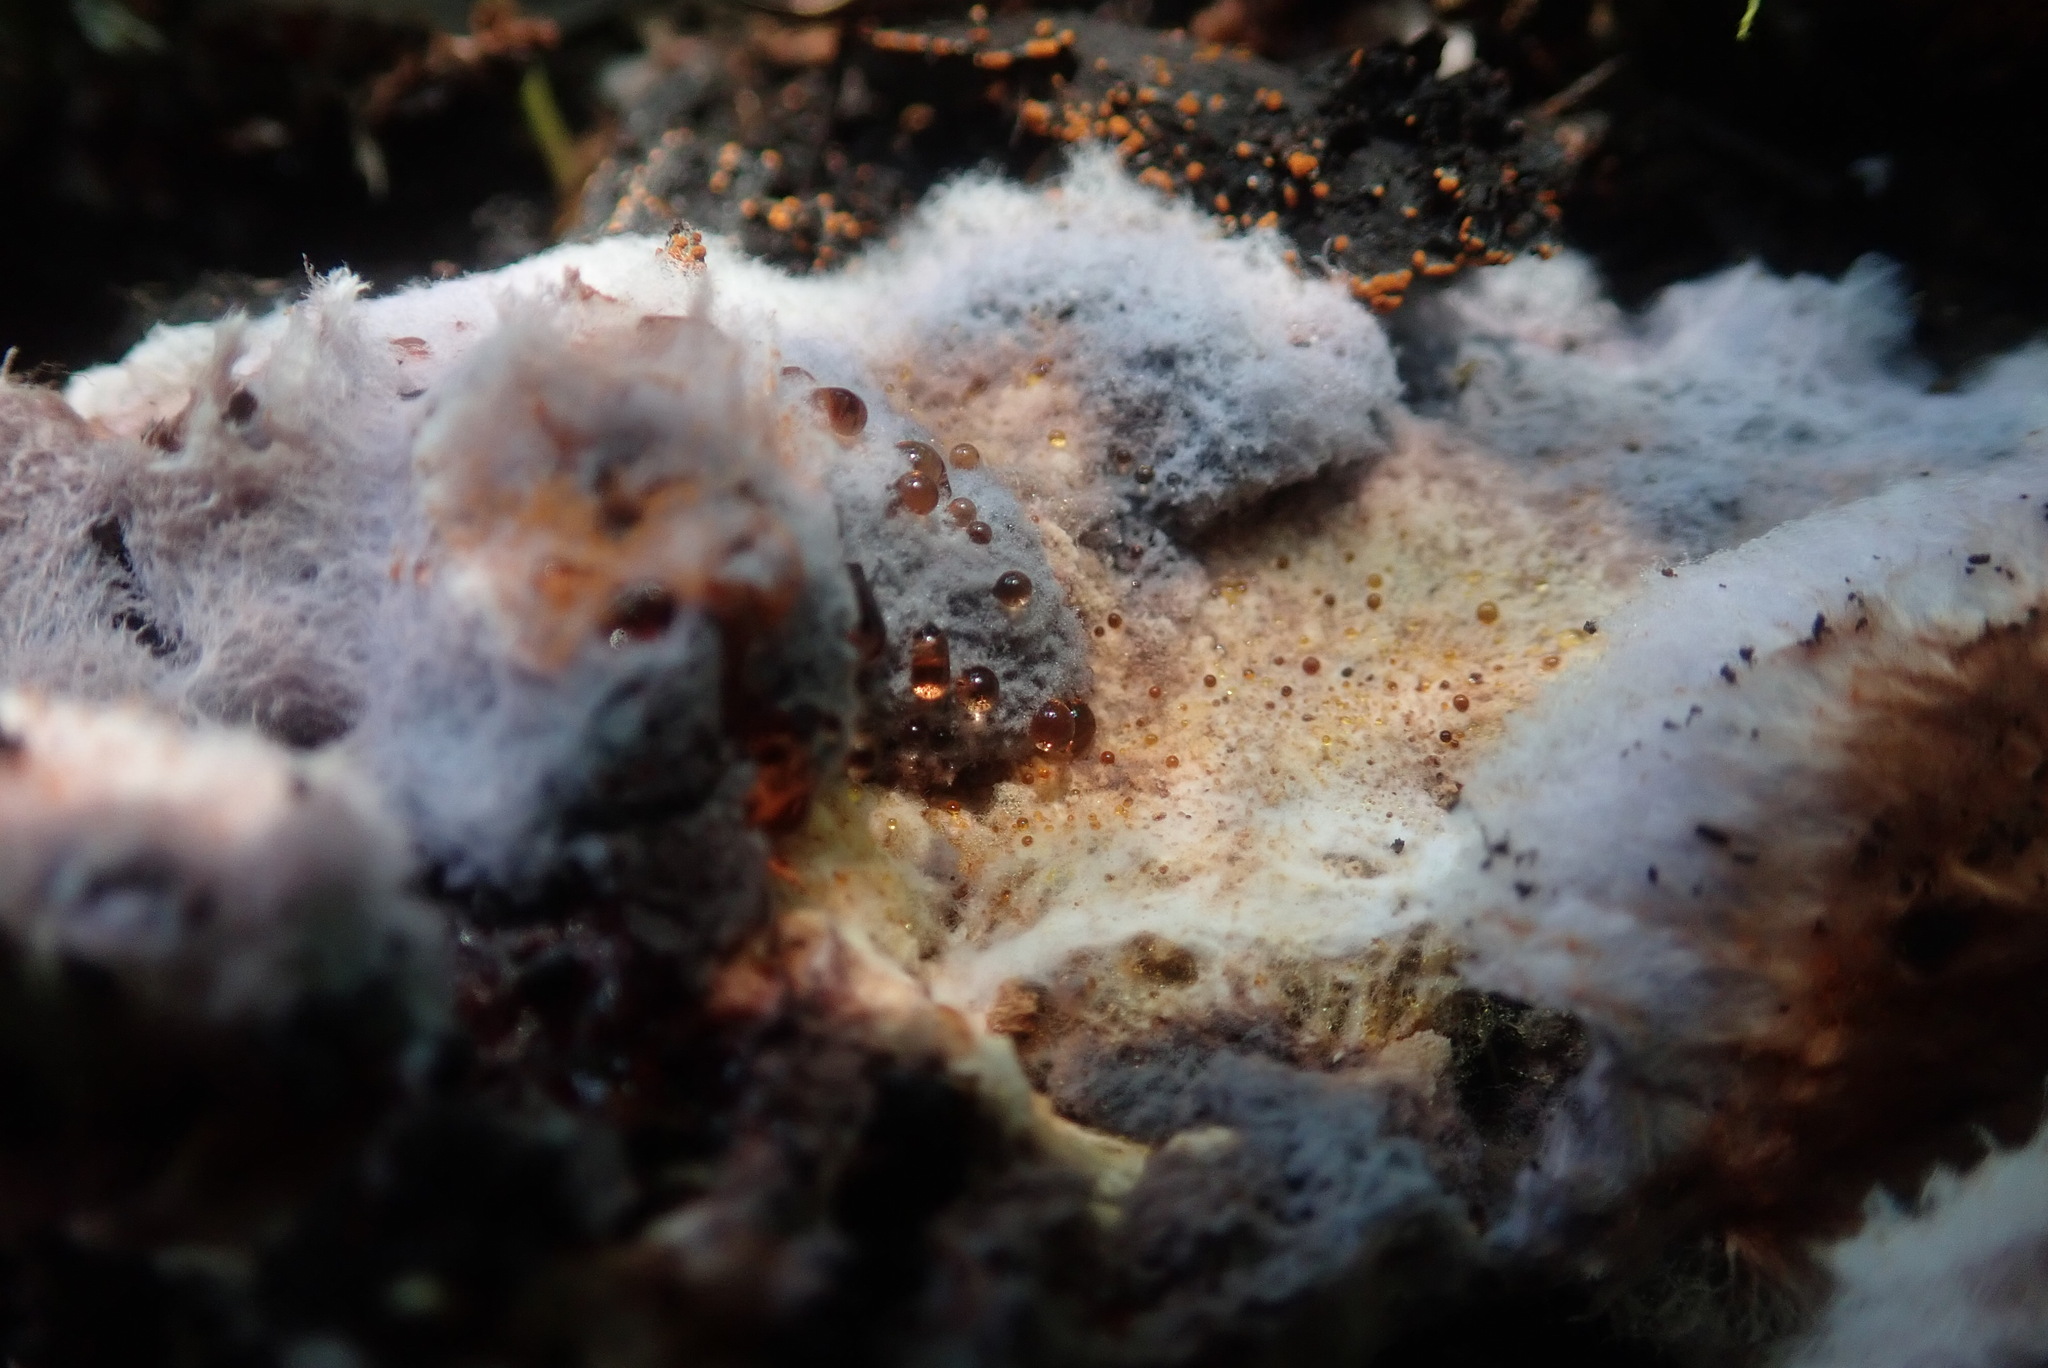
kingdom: Fungi
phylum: Basidiomycota
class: Agaricomycetes
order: Corticiales
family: Punctulariaceae
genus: Punctularia
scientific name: Punctularia atropurpurascens
